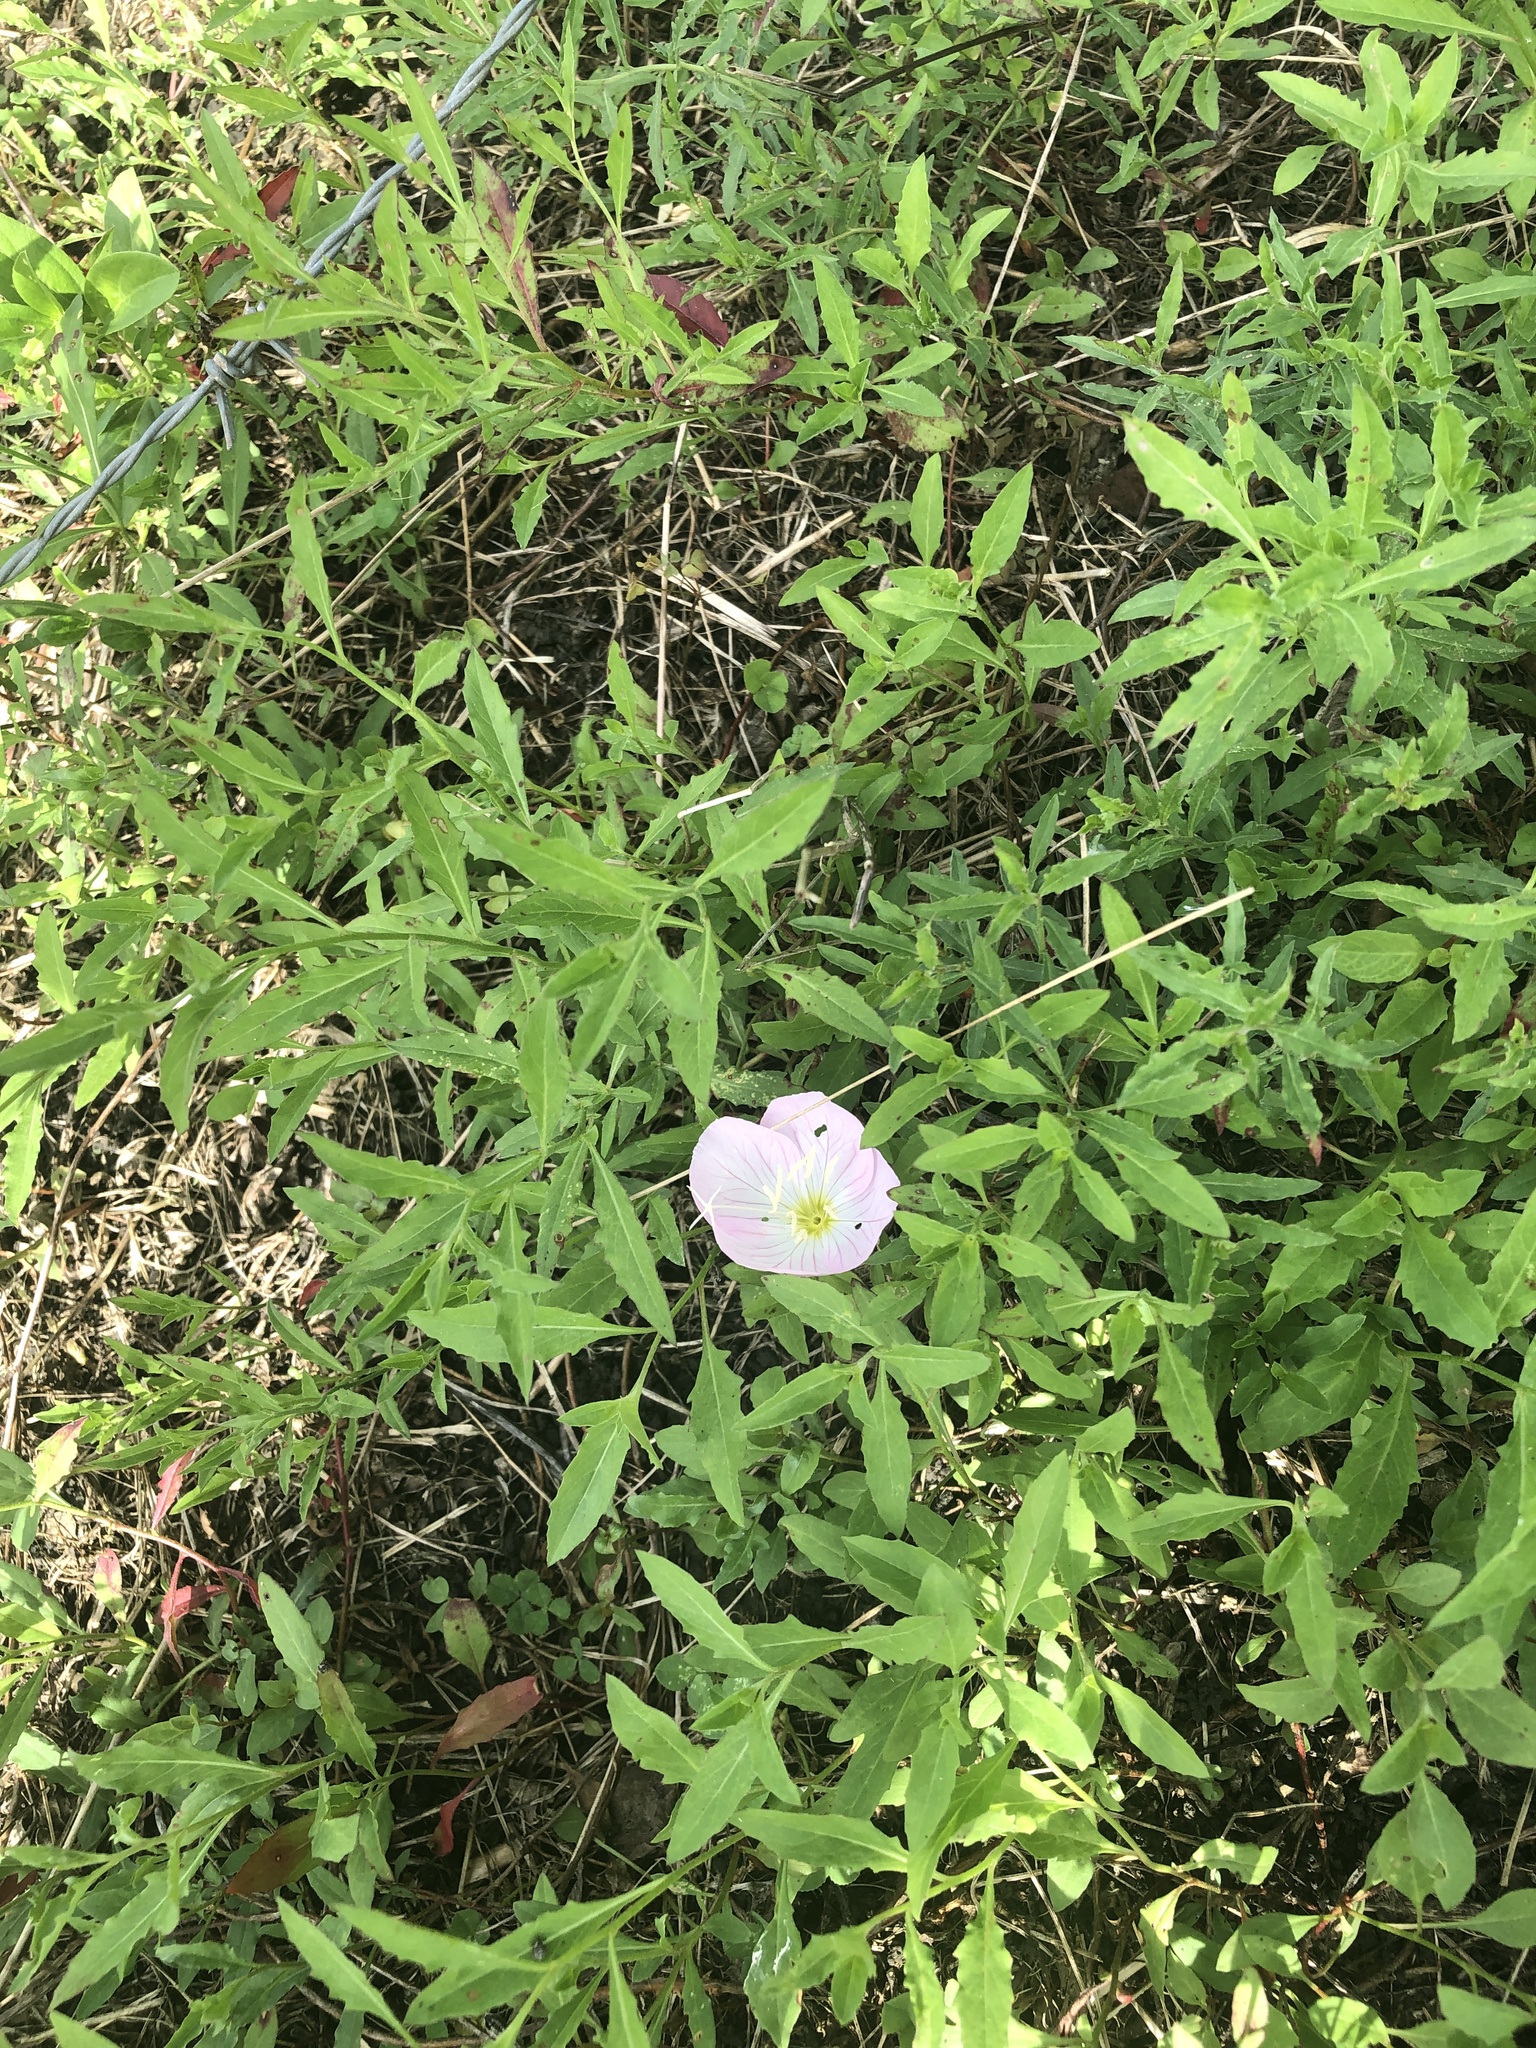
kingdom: Plantae
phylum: Tracheophyta
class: Magnoliopsida
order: Myrtales
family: Onagraceae
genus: Oenothera
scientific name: Oenothera speciosa
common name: White evening-primrose
